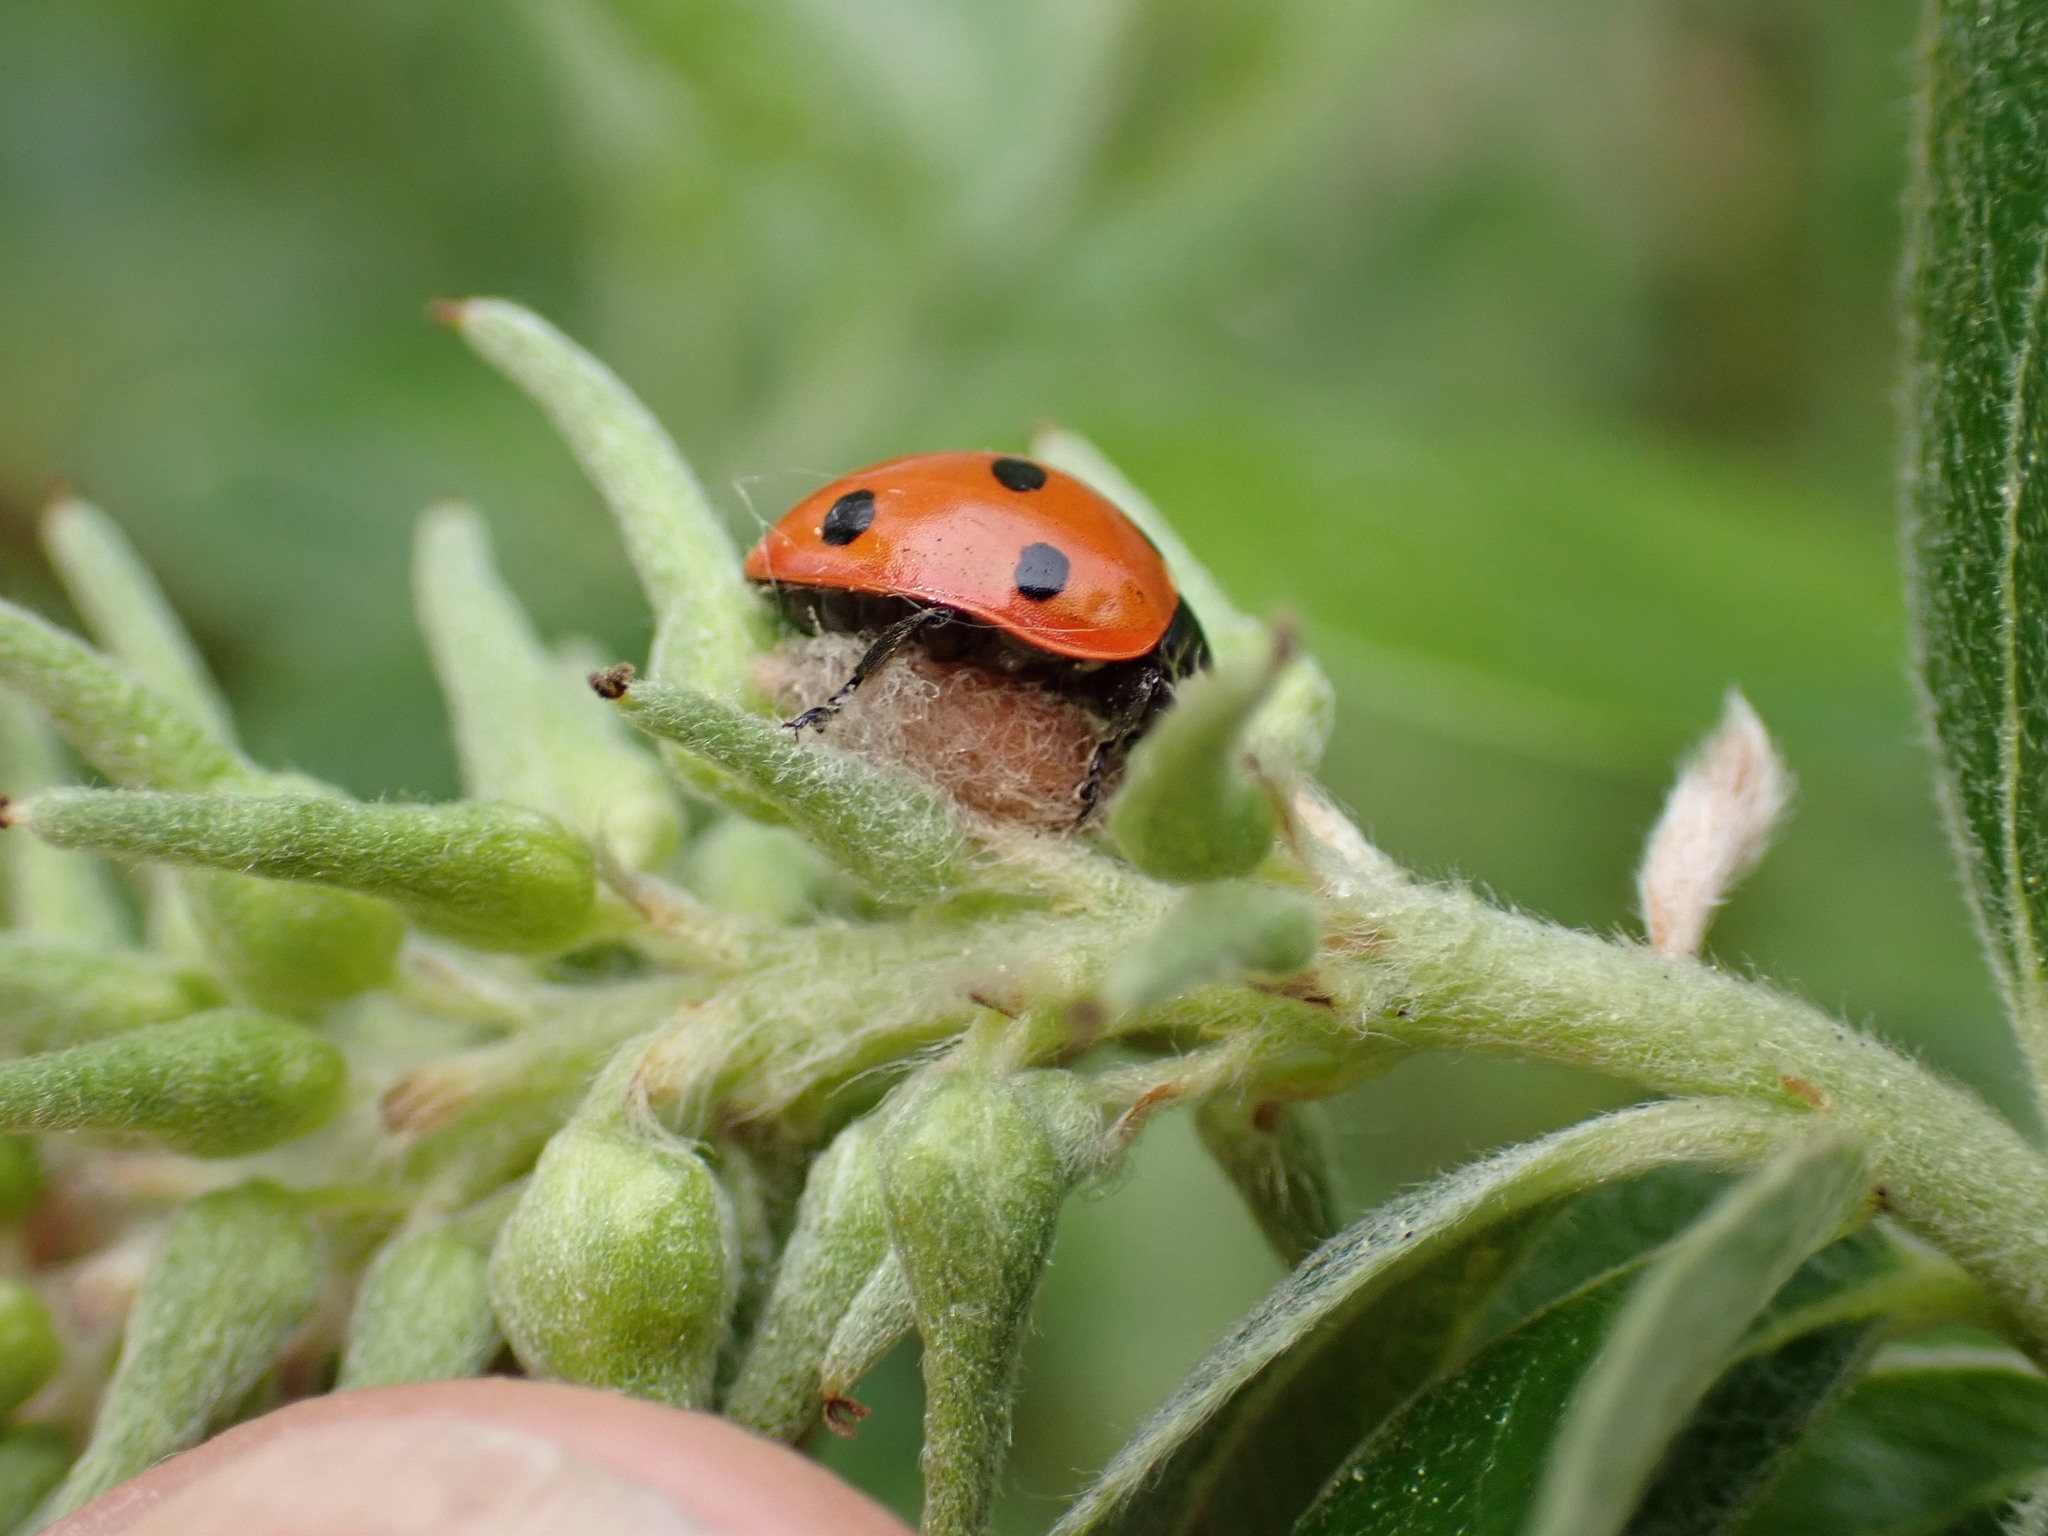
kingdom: Animalia
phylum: Arthropoda
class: Insecta
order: Hymenoptera
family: Braconidae
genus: Dinocampus
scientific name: Dinocampus coccinellae
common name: Braconid wasp
